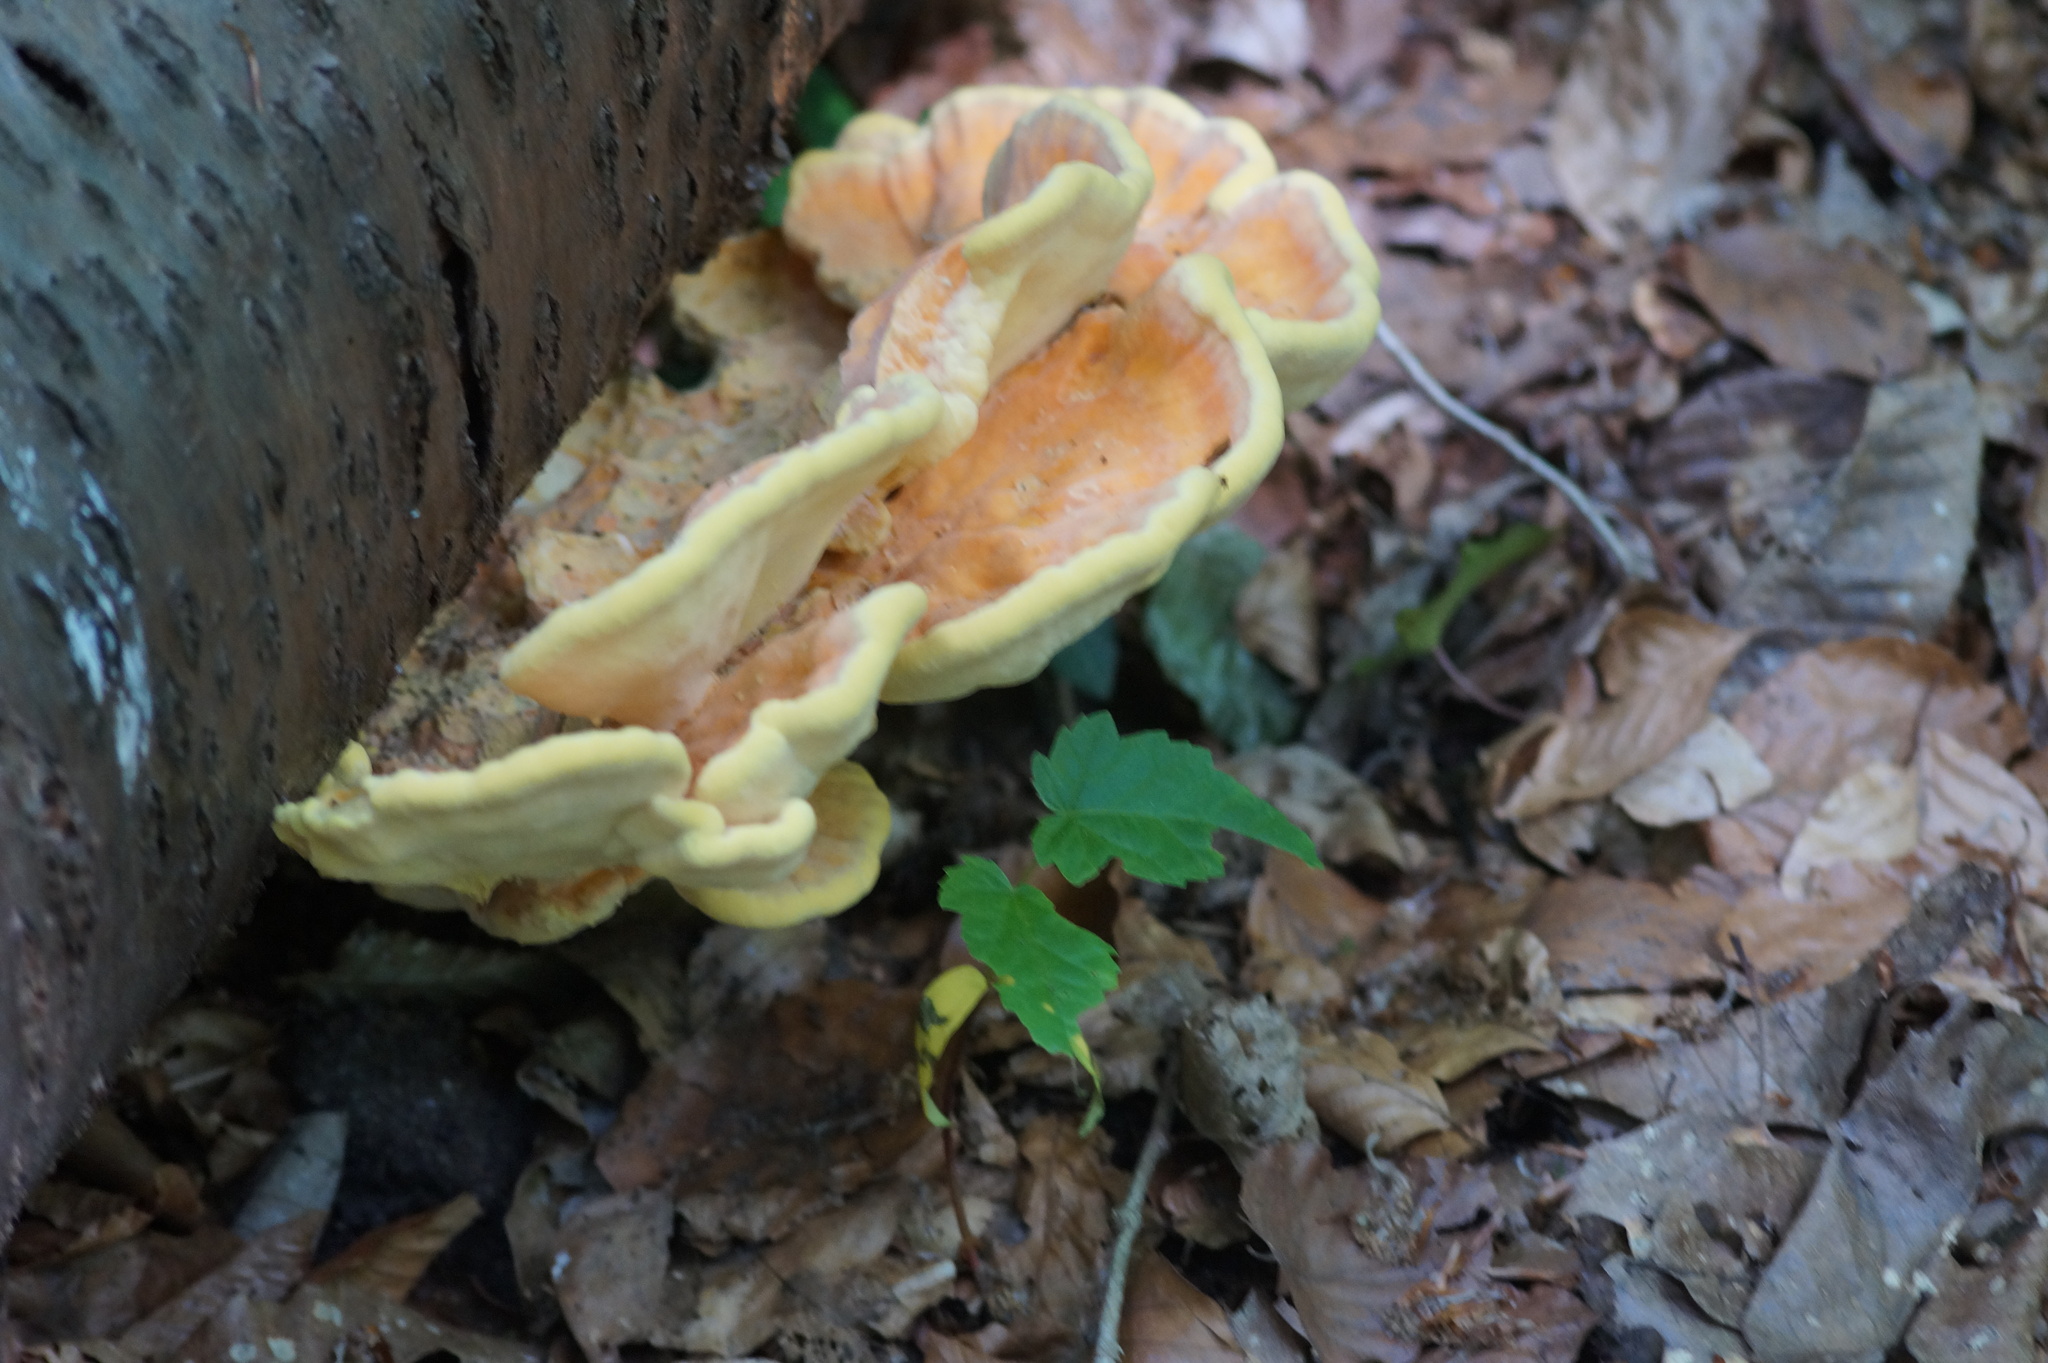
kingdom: Fungi
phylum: Basidiomycota
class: Agaricomycetes
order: Polyporales
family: Laetiporaceae
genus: Laetiporus
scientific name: Laetiporus sulphureus
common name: Chicken of the woods
